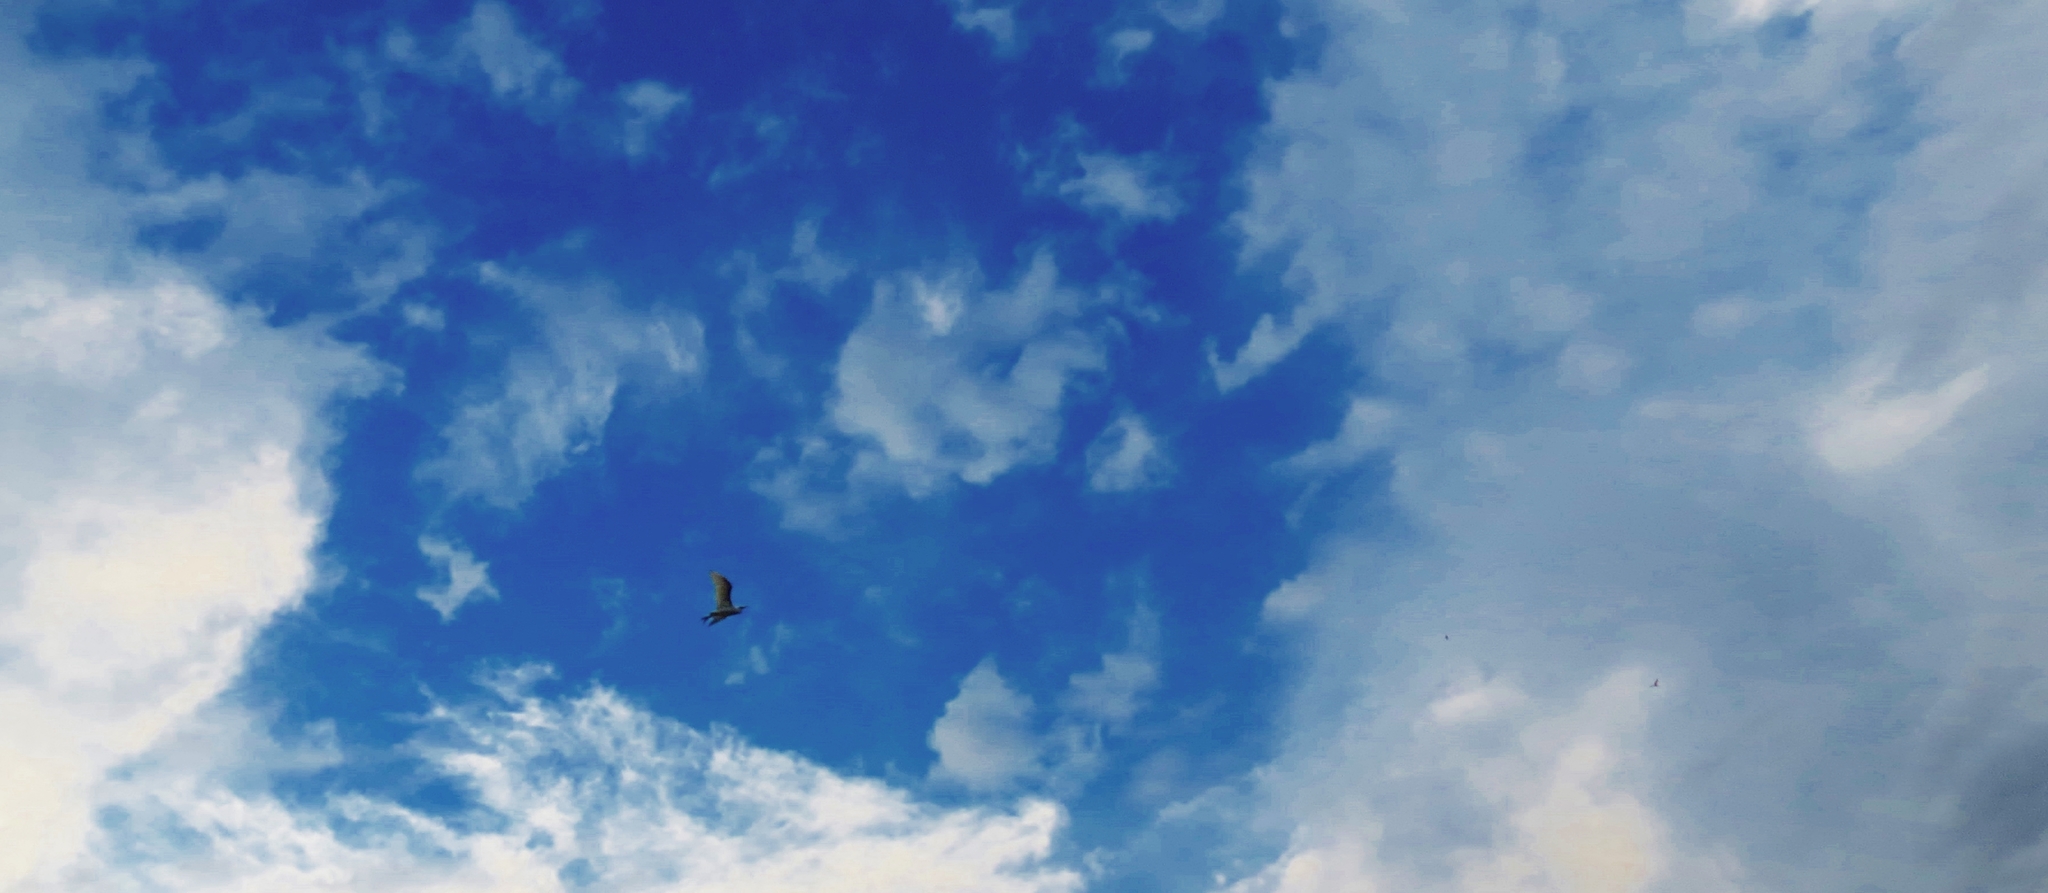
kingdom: Animalia
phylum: Chordata
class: Aves
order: Pelecaniformes
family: Ardeidae
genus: Bubulcus
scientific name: Bubulcus ibis
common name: Cattle egret
